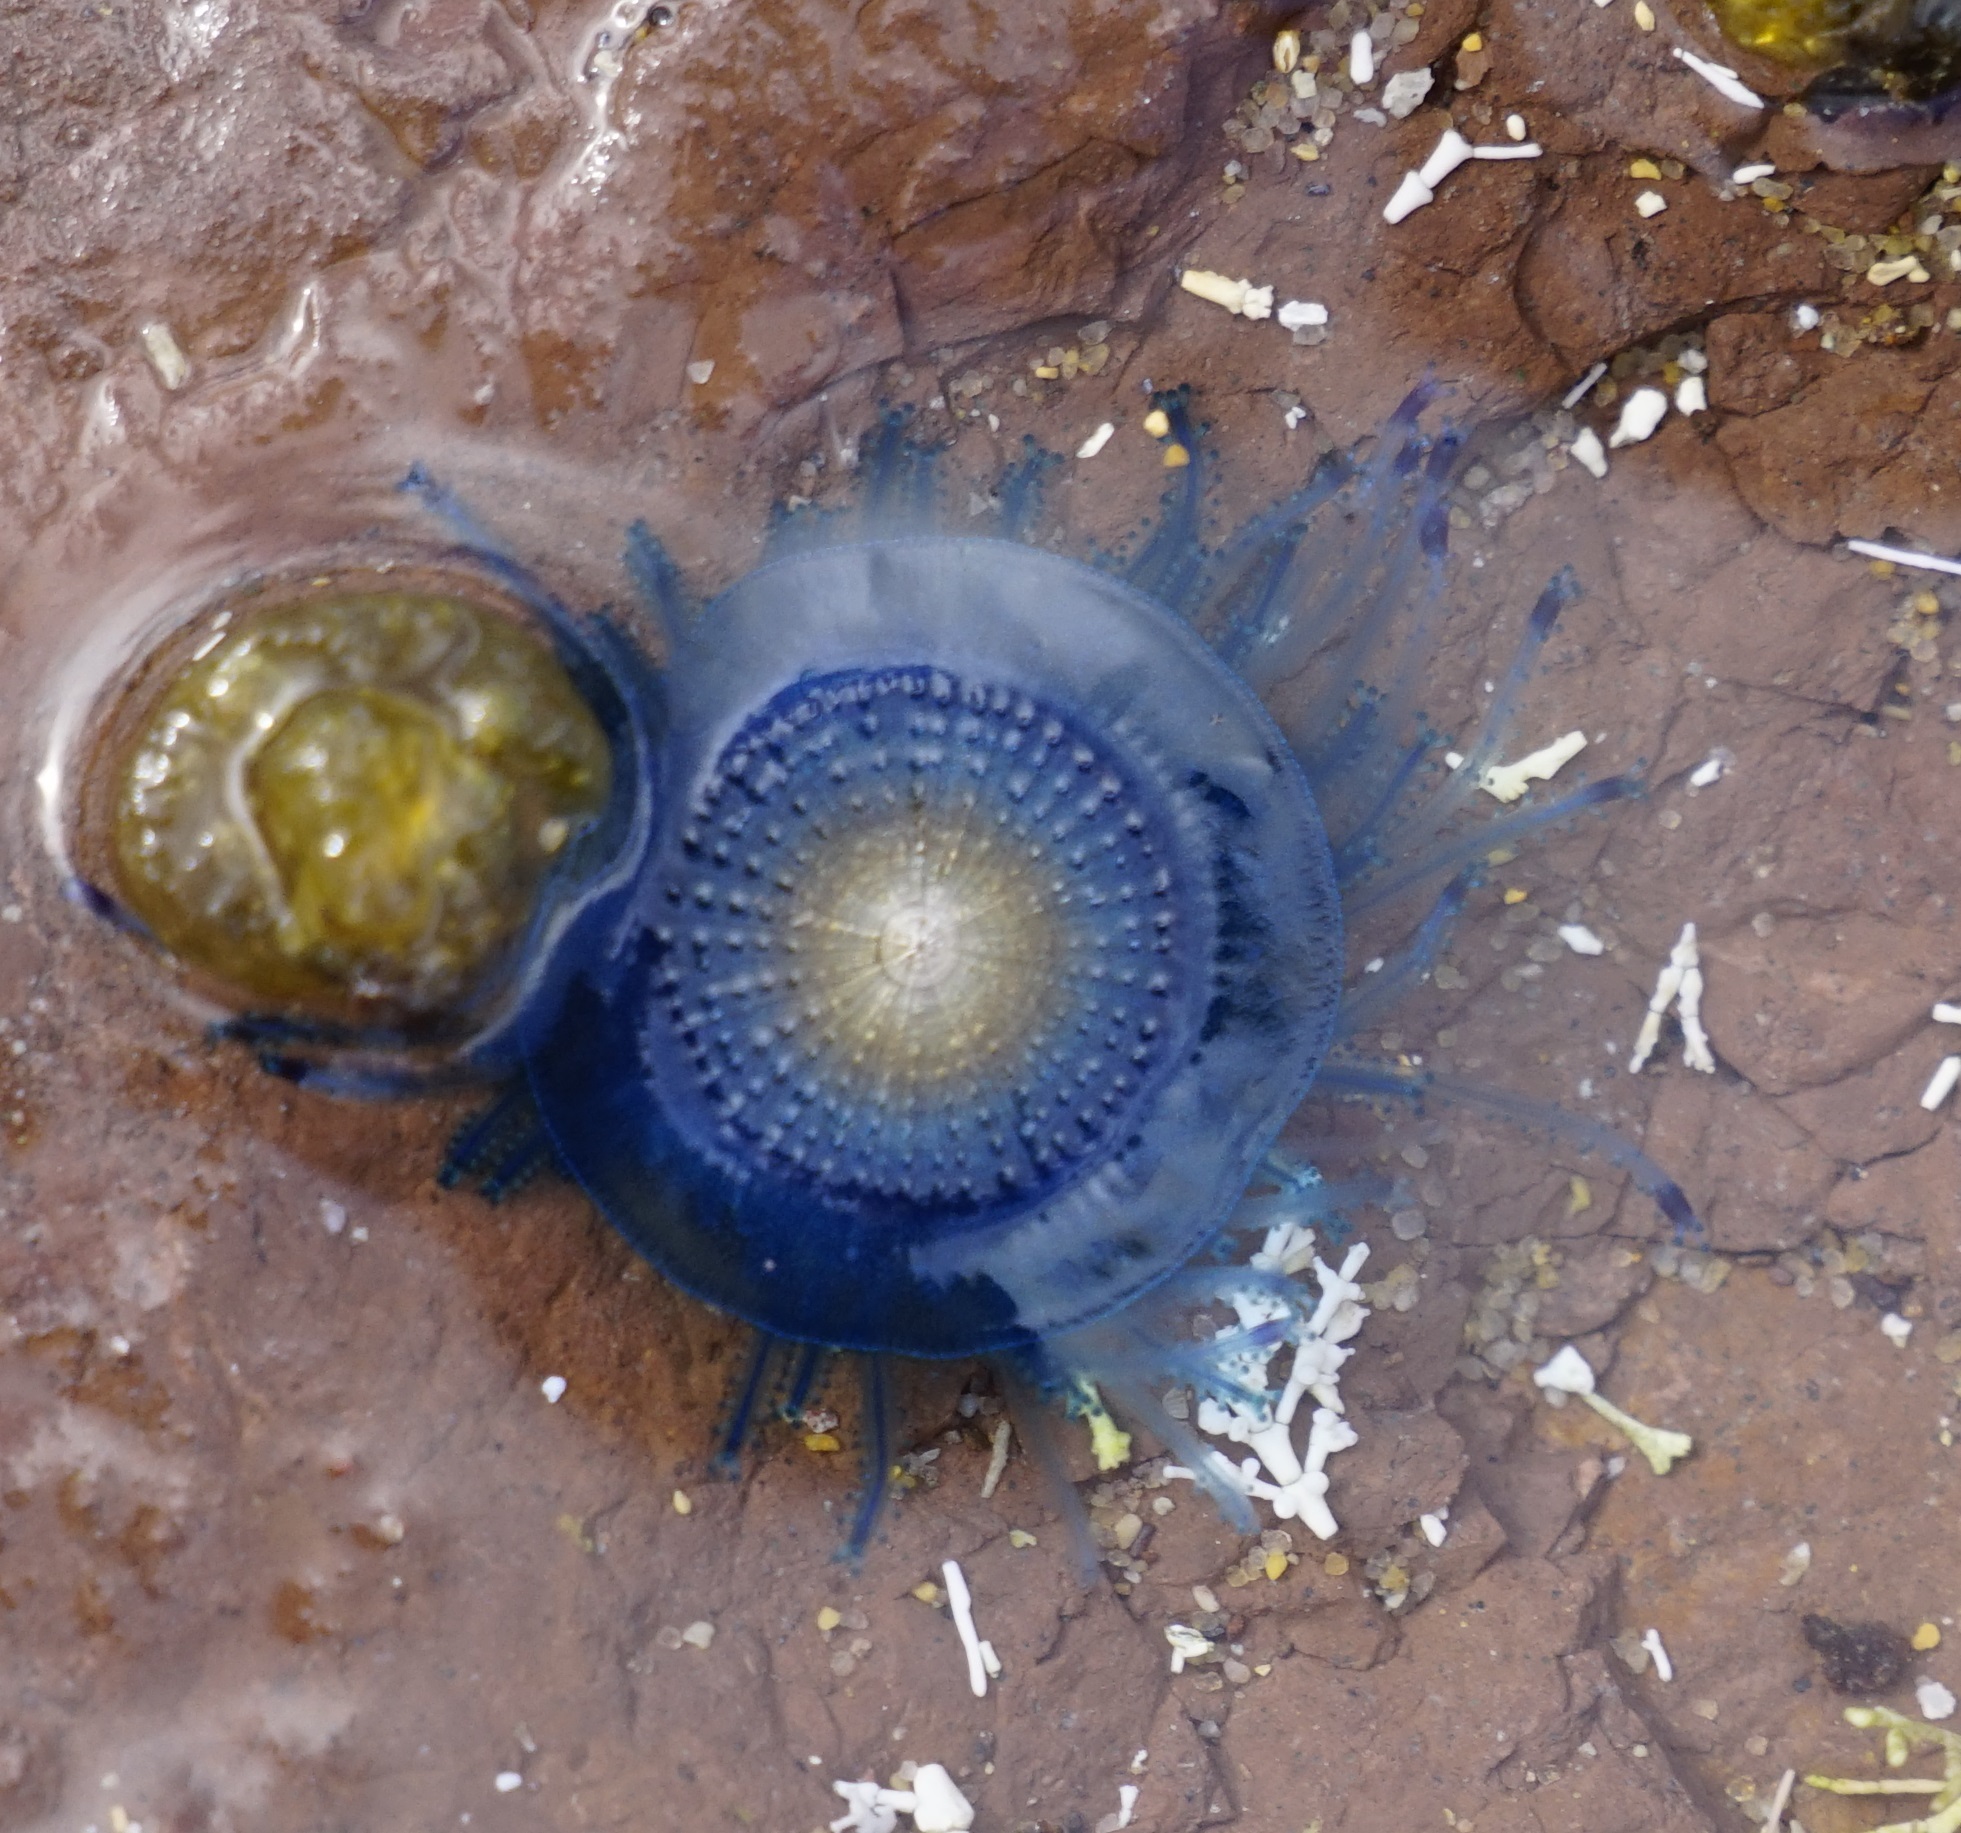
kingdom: Animalia
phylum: Cnidaria
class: Hydrozoa
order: Anthoathecata
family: Porpitidae
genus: Porpita
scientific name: Porpita porpita
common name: Blue button
